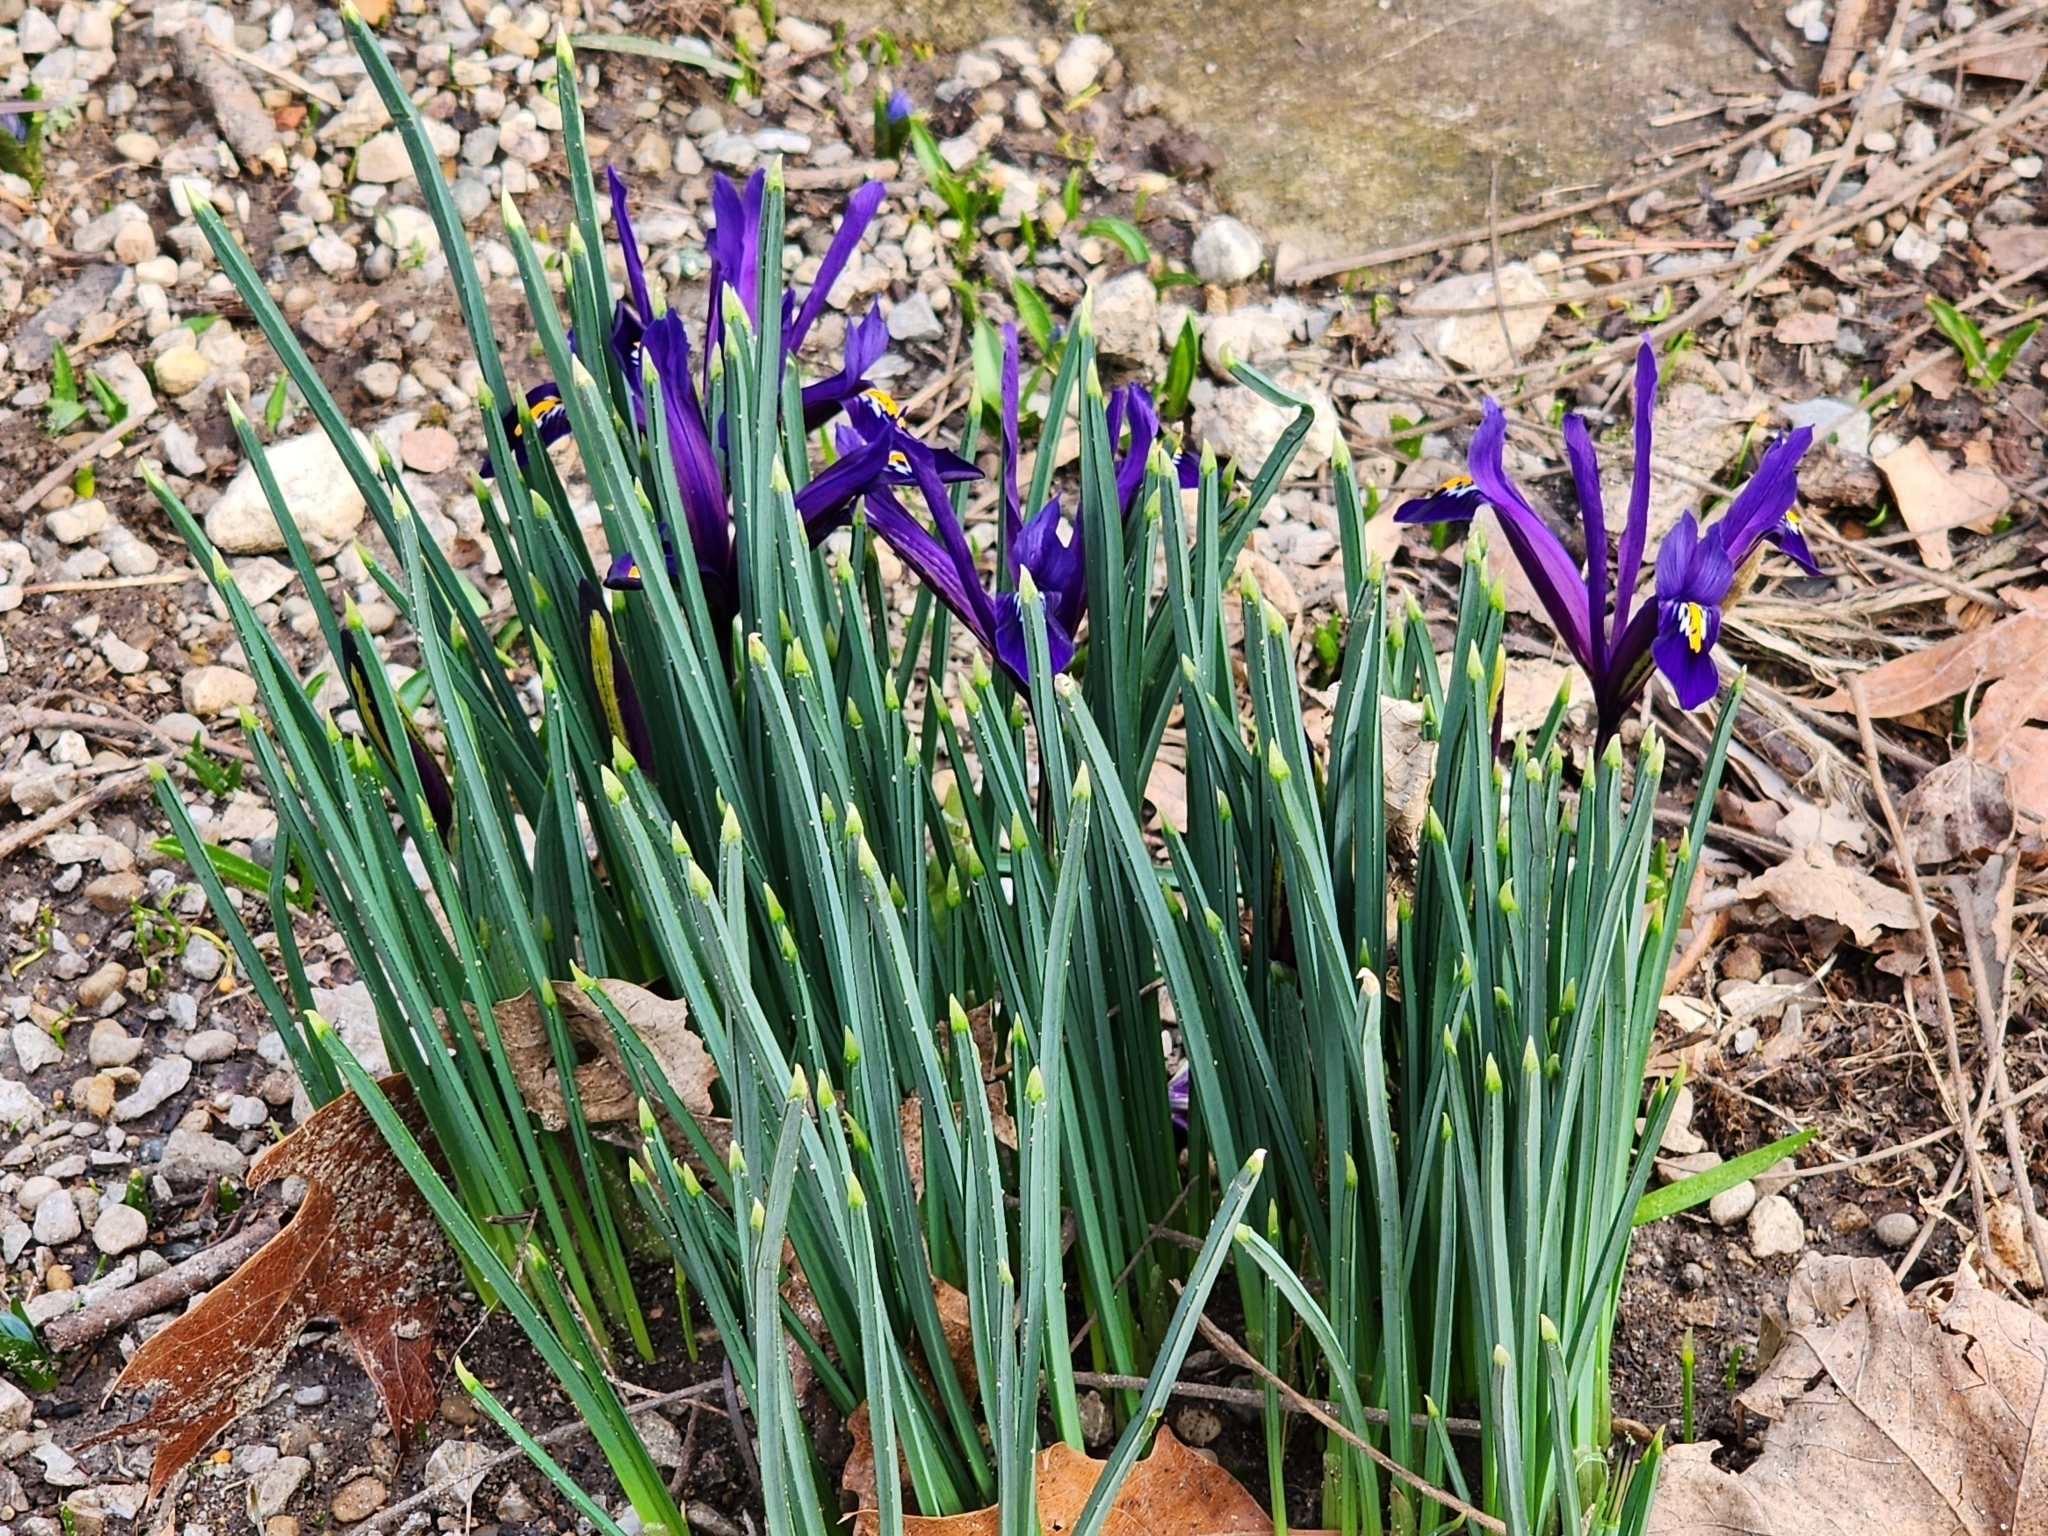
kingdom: Plantae
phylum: Tracheophyta
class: Liliopsida
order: Asparagales
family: Iridaceae
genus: Iris
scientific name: Iris reticulata
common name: Netted iris
